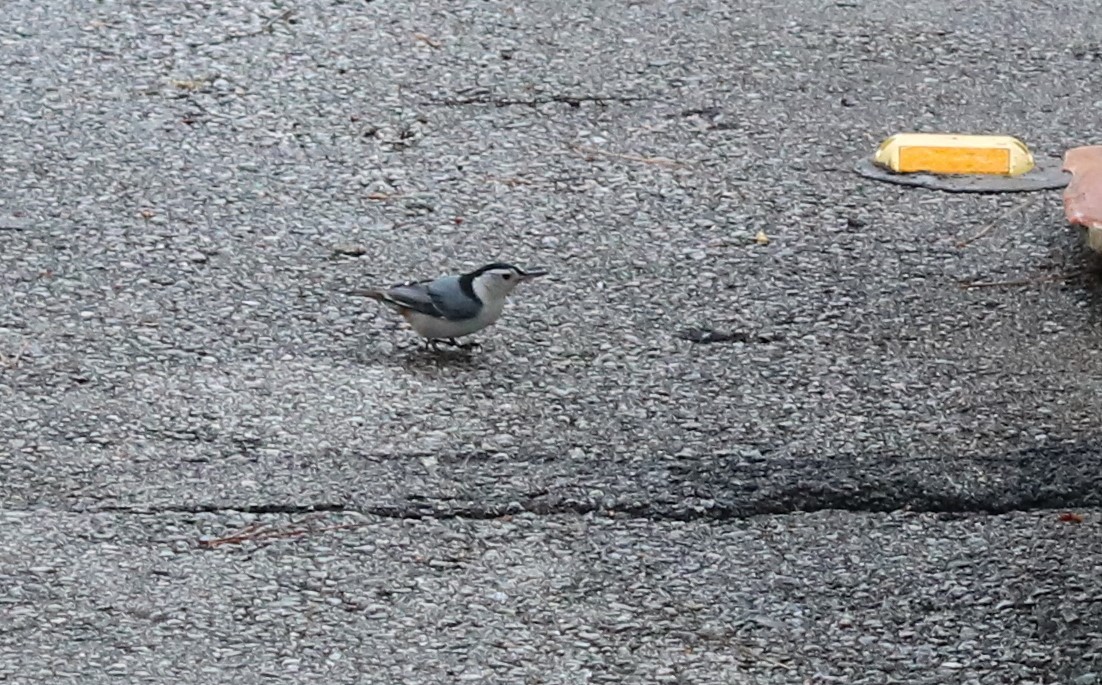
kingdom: Animalia
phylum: Chordata
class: Aves
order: Passeriformes
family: Sittidae
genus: Sitta
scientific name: Sitta carolinensis
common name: White-breasted nuthatch
